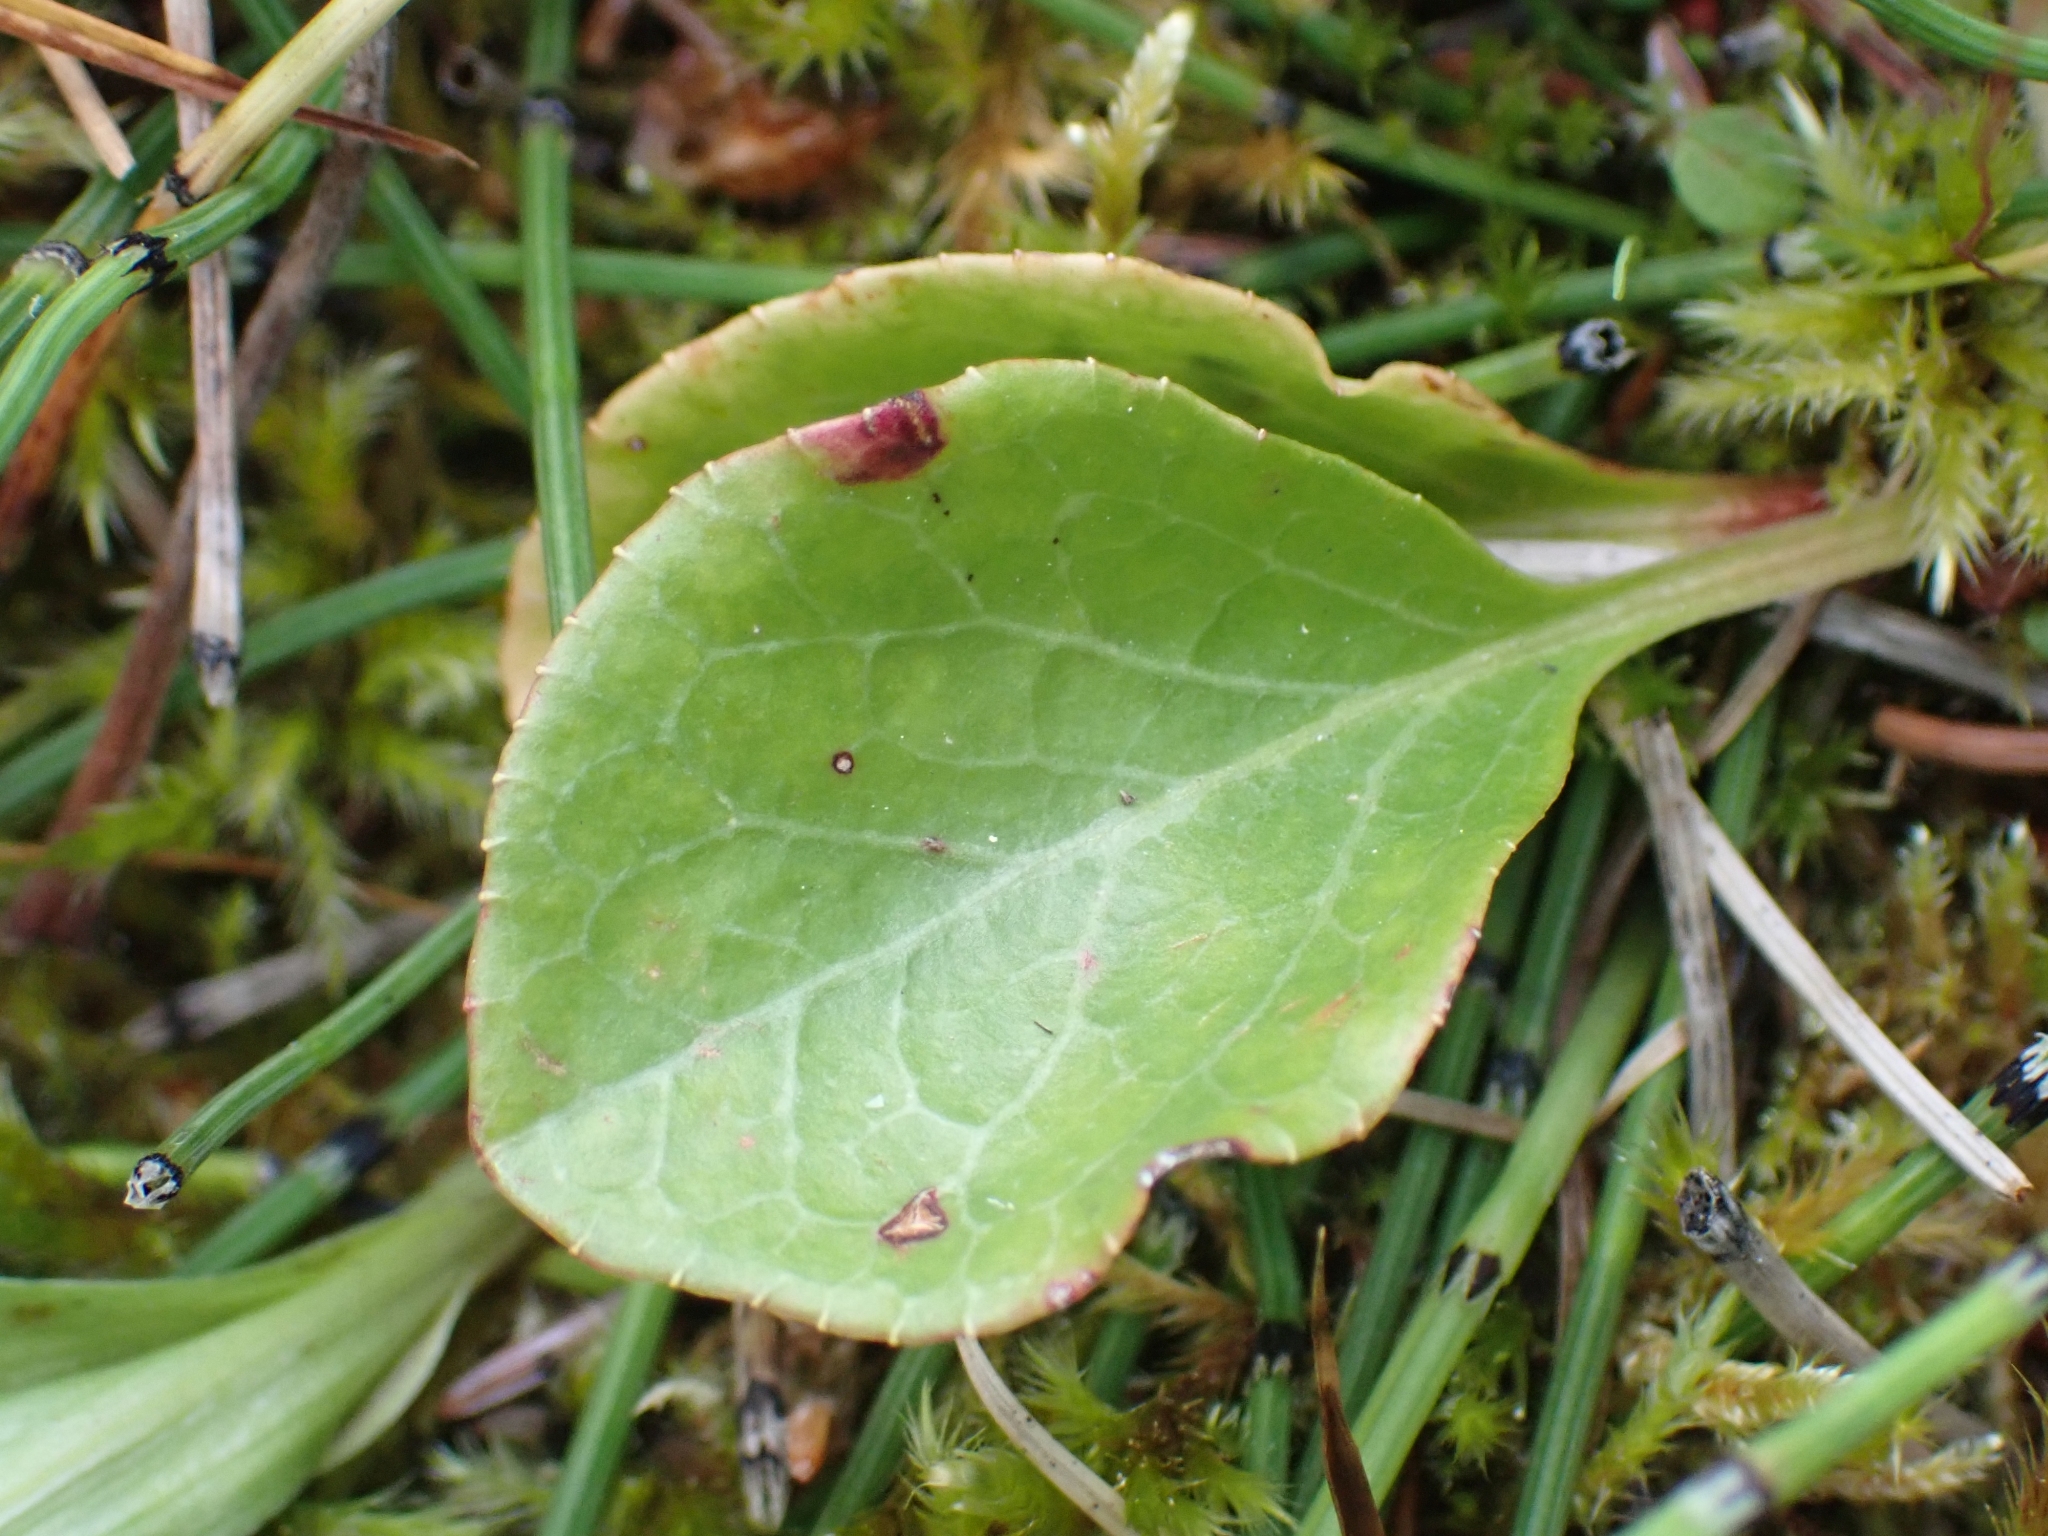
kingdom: Plantae
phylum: Tracheophyta
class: Magnoliopsida
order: Ericales
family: Ericaceae
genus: Pyrola
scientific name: Pyrola asarifolia
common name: Bog wintergreen
